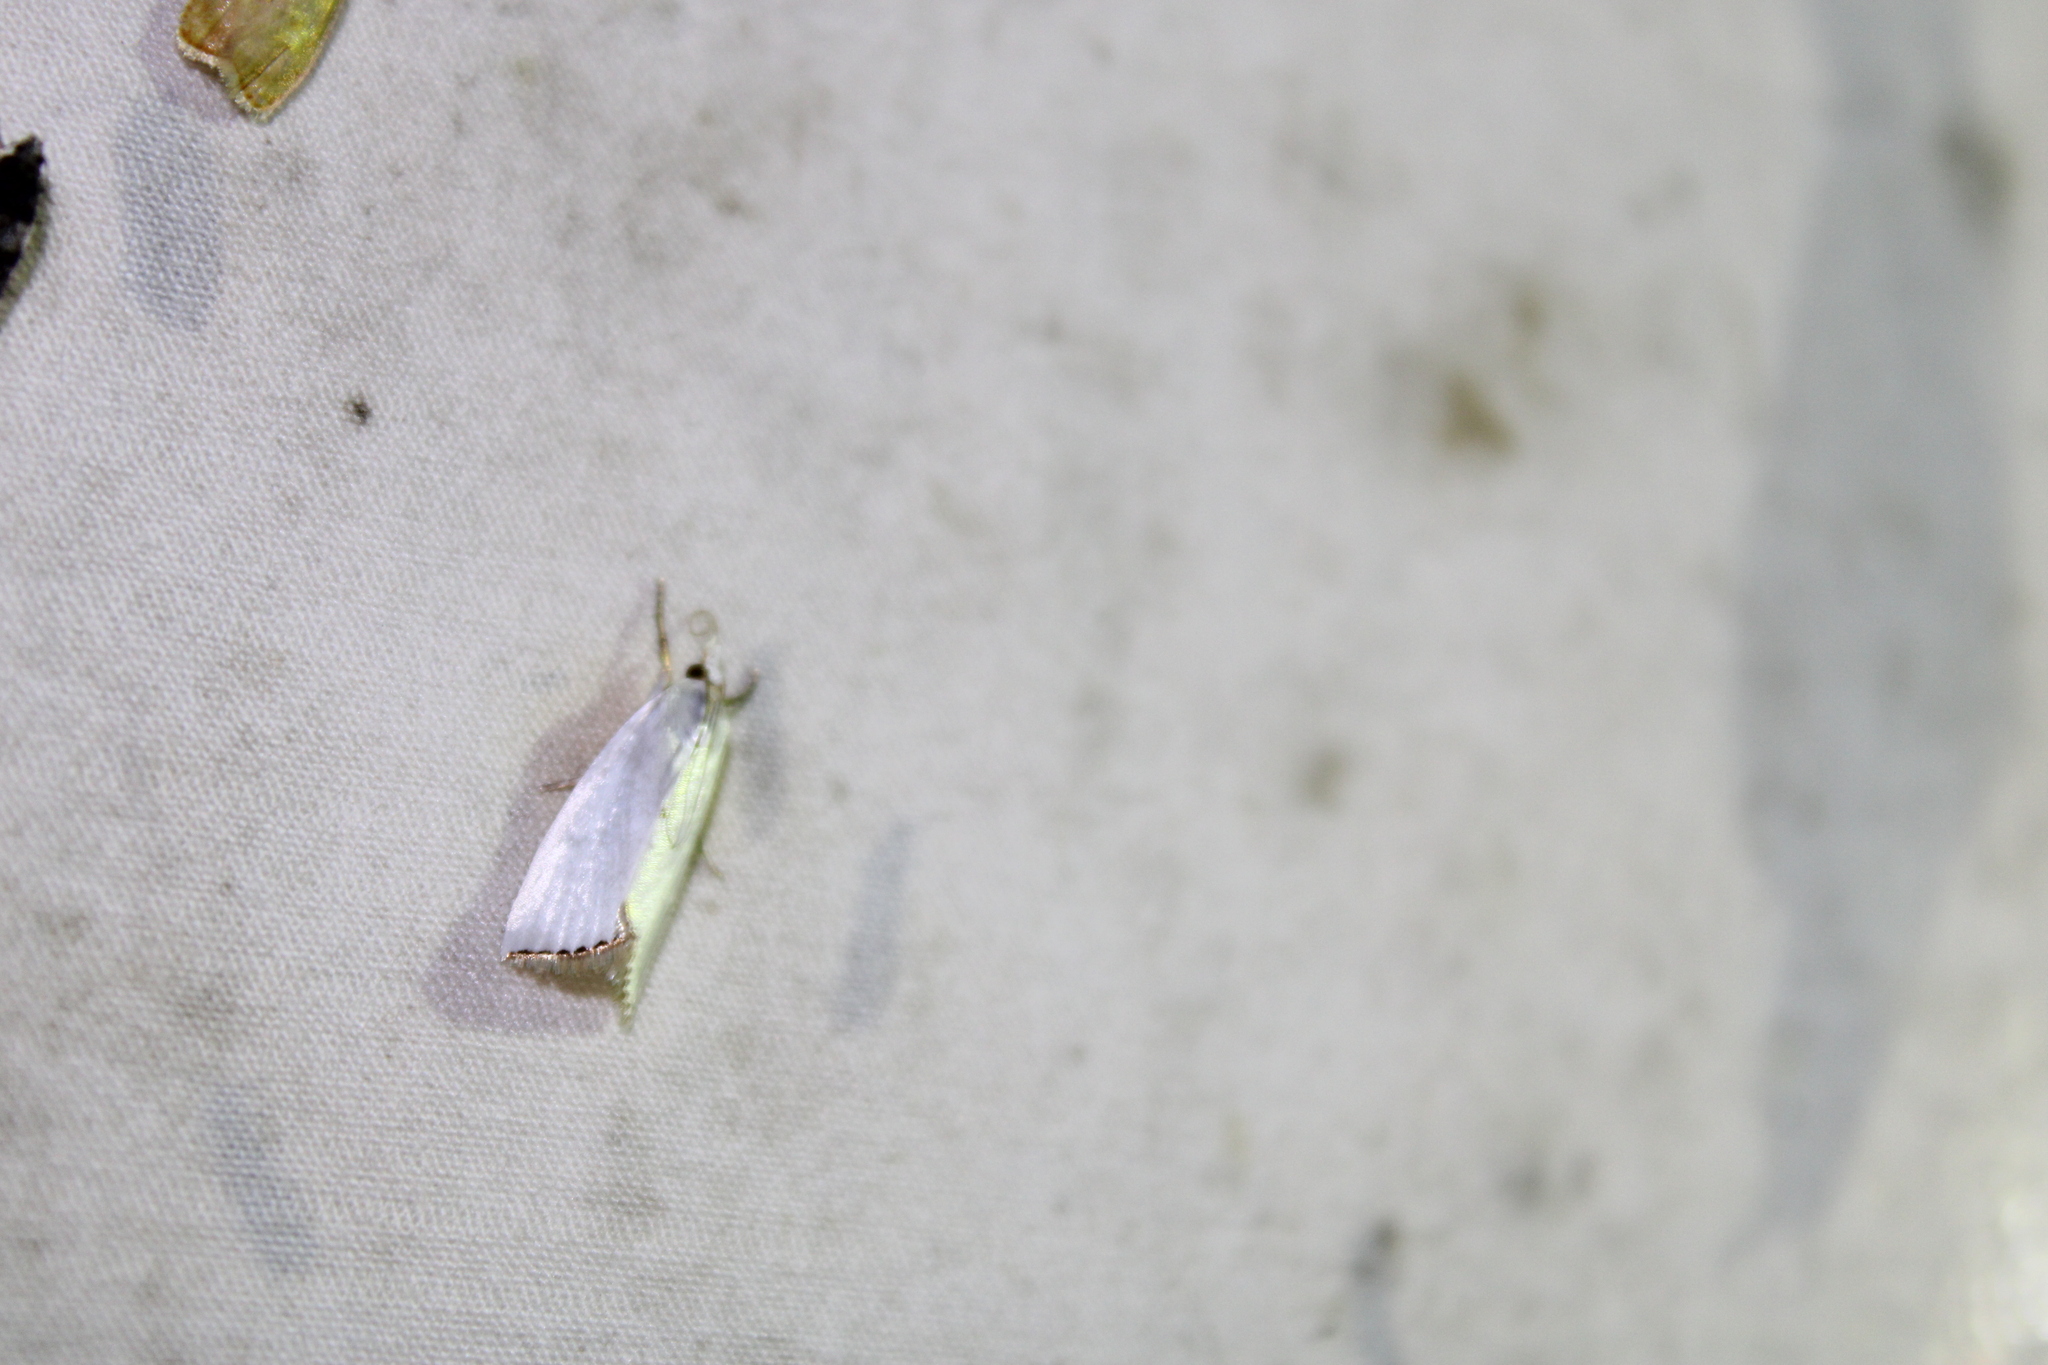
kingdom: Animalia
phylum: Arthropoda
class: Insecta
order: Lepidoptera
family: Crambidae
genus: Argyria
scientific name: Argyria nivalis
